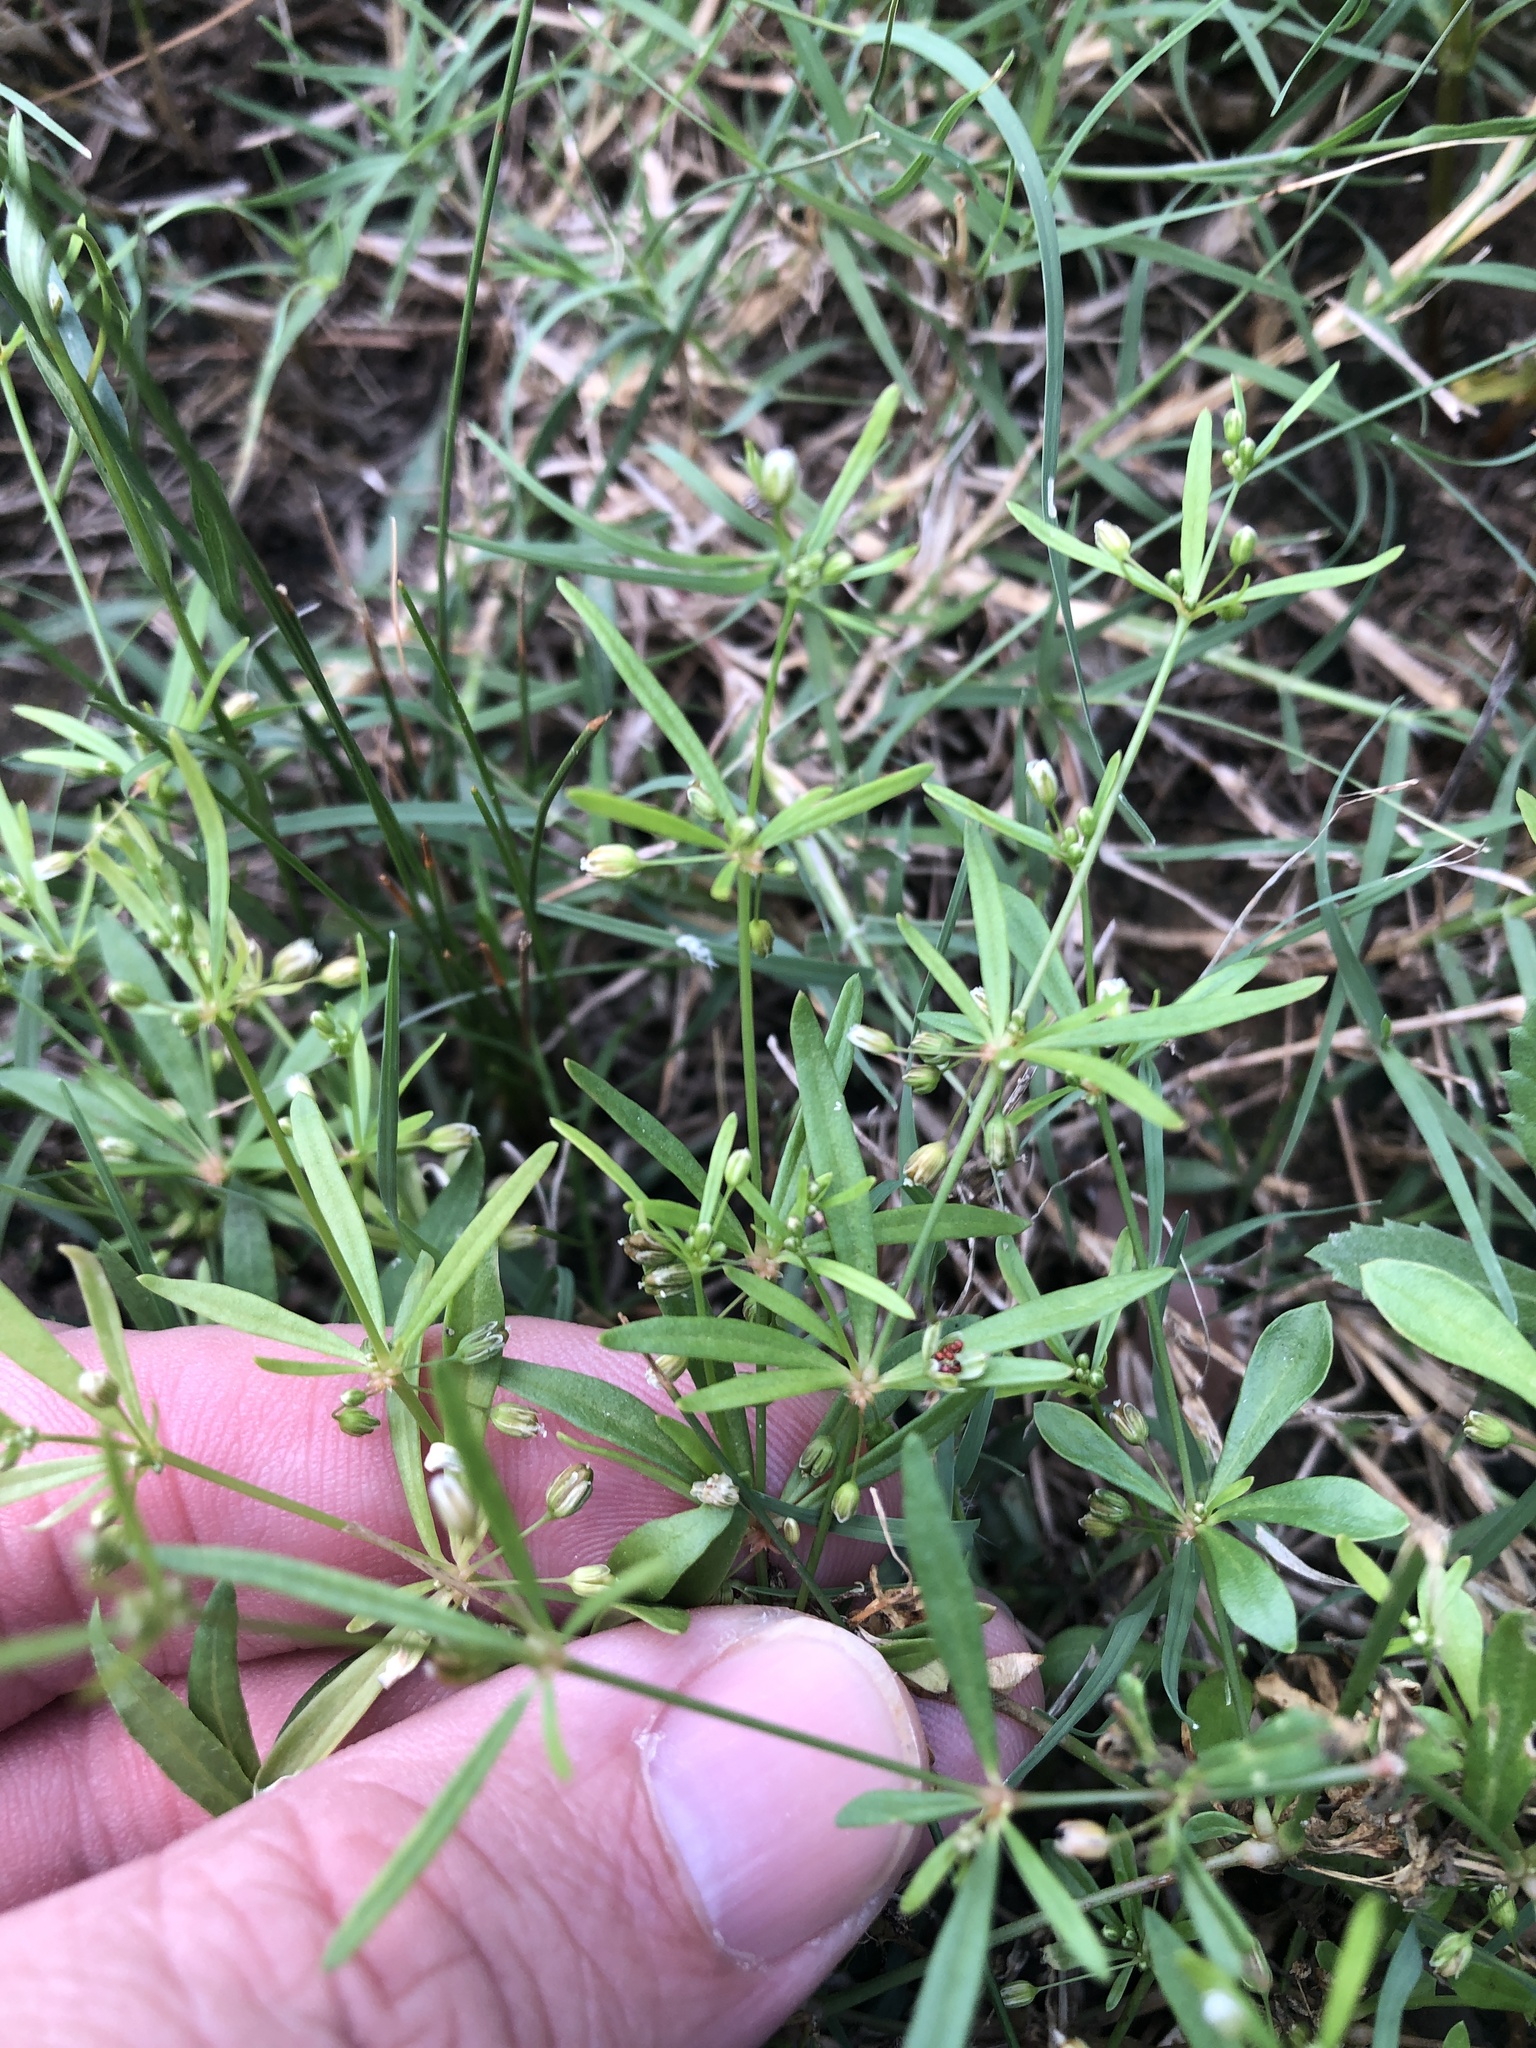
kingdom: Plantae
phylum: Tracheophyta
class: Magnoliopsida
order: Caryophyllales
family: Molluginaceae
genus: Mollugo
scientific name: Mollugo verticillata
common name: Green carpetweed
